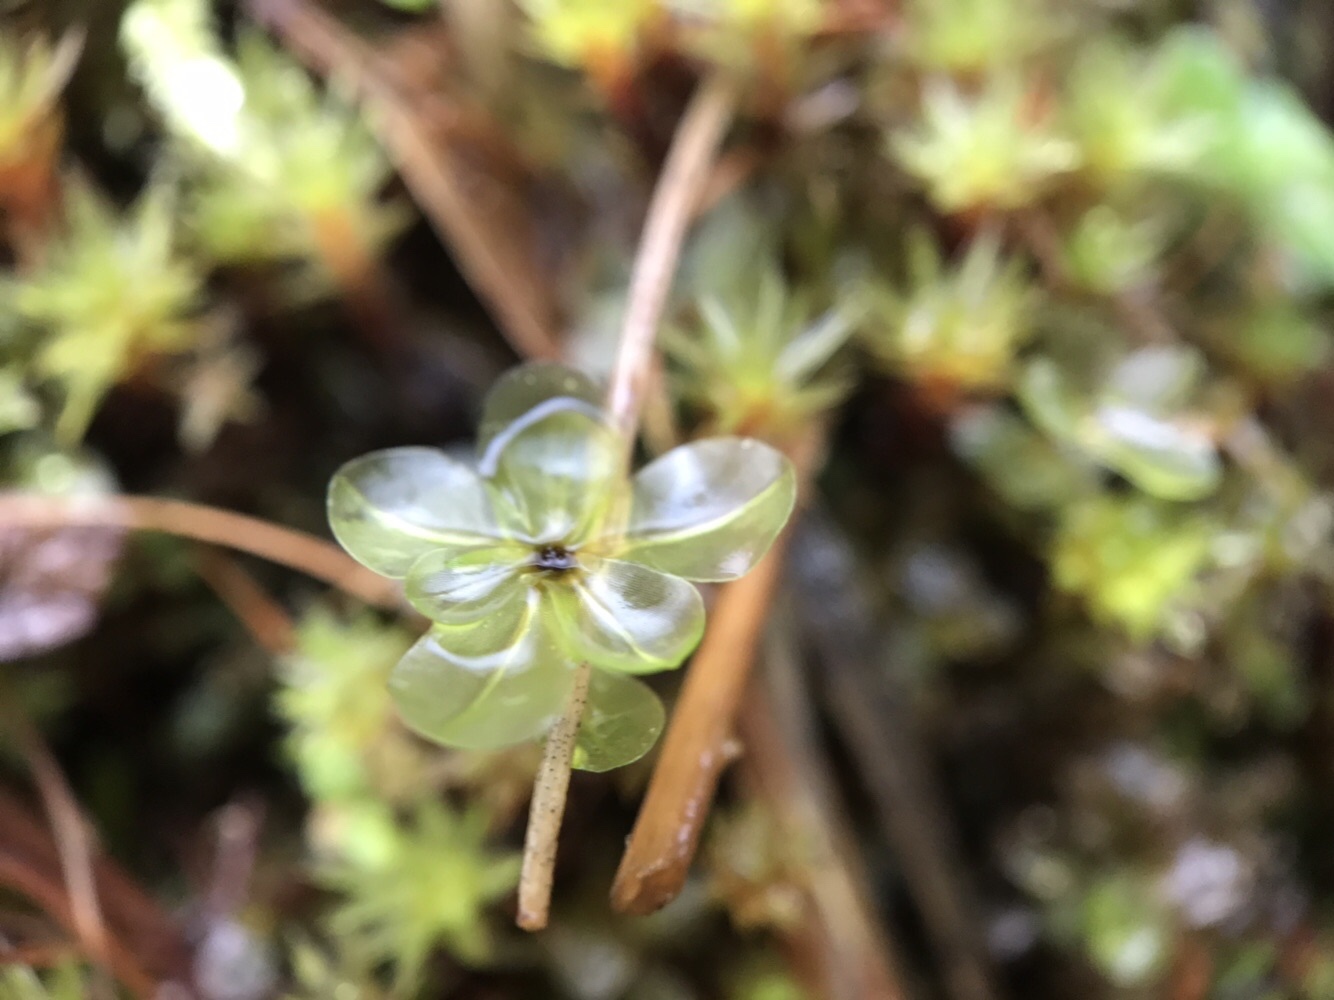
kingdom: Plantae
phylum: Bryophyta
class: Bryopsida
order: Bryales
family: Mniaceae
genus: Rhizomnium
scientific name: Rhizomnium punctatum
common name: Dotted leafy moss
